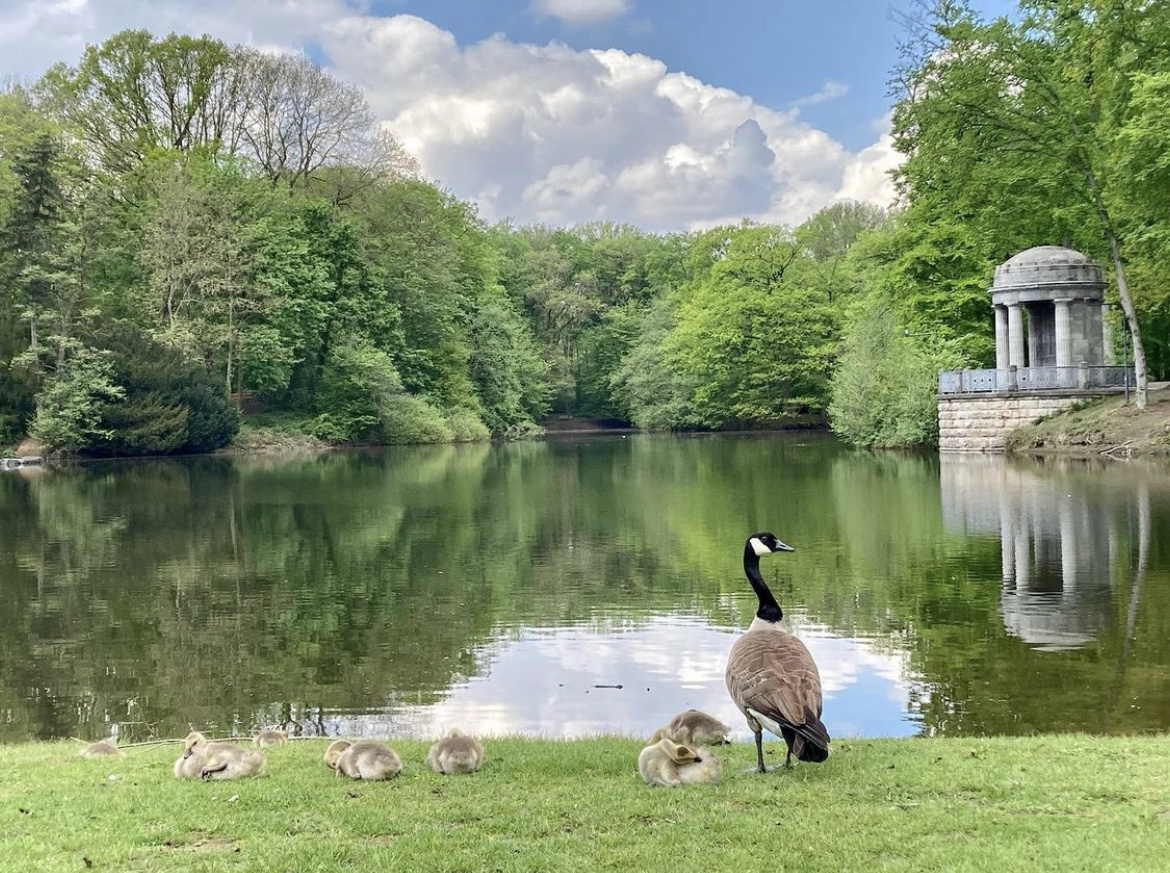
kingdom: Animalia
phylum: Chordata
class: Aves
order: Anseriformes
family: Anatidae
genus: Branta
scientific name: Branta canadensis
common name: Canada goose
